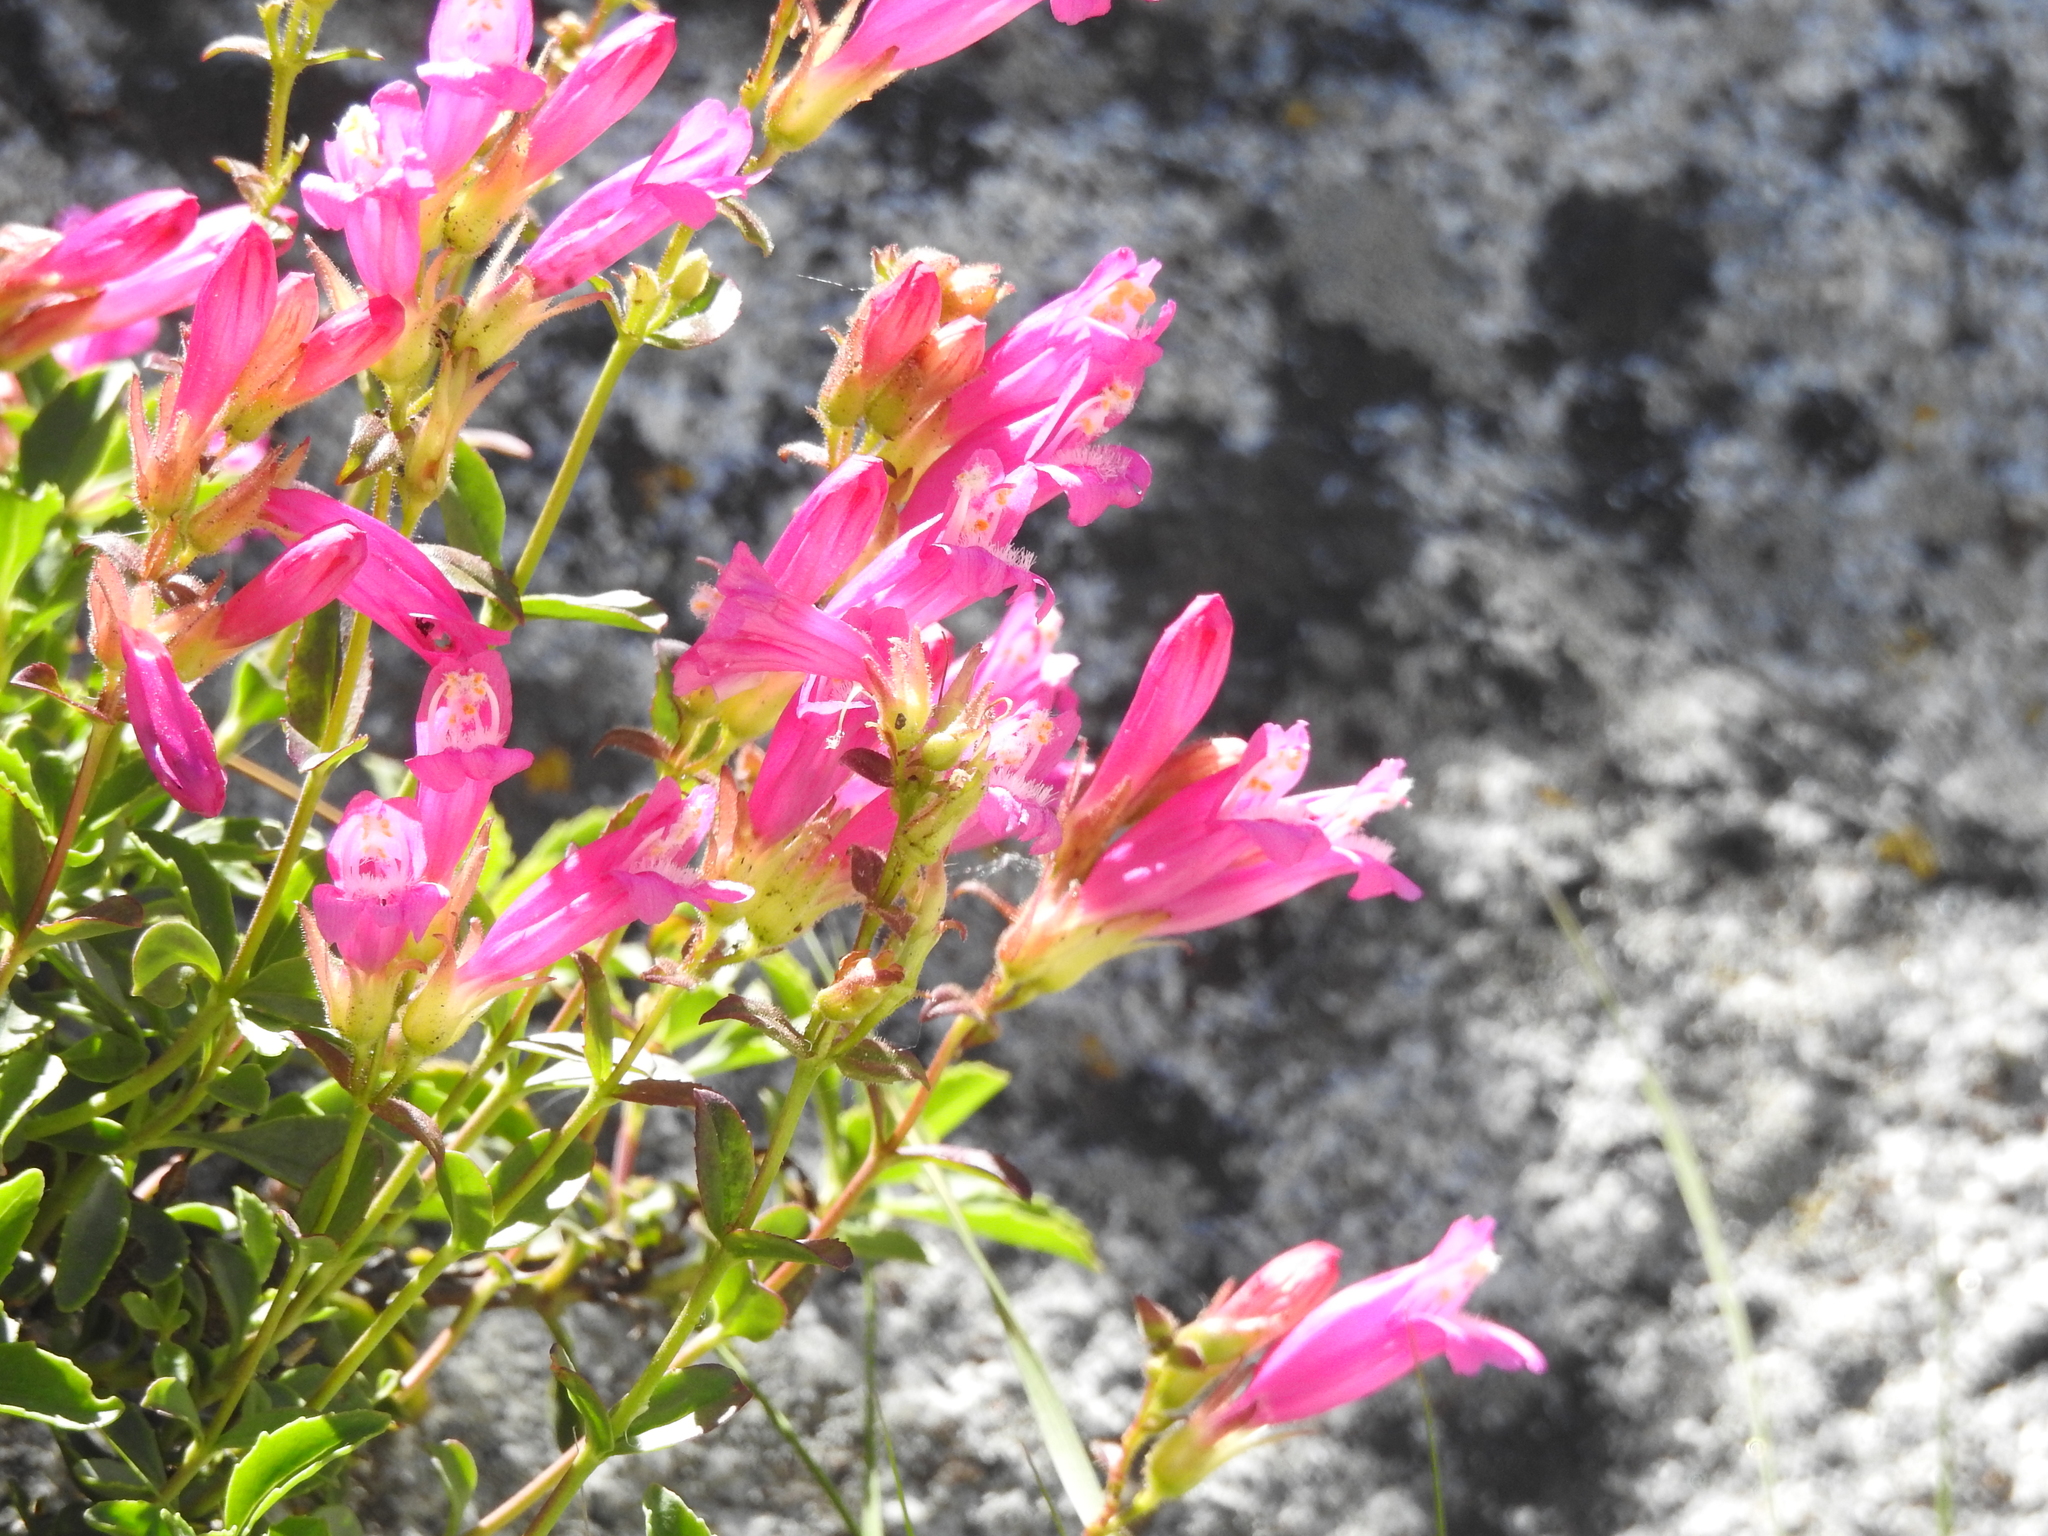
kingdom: Plantae
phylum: Tracheophyta
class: Magnoliopsida
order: Lamiales
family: Plantaginaceae
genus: Penstemon
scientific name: Penstemon newberryi
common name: Mountain-pride
